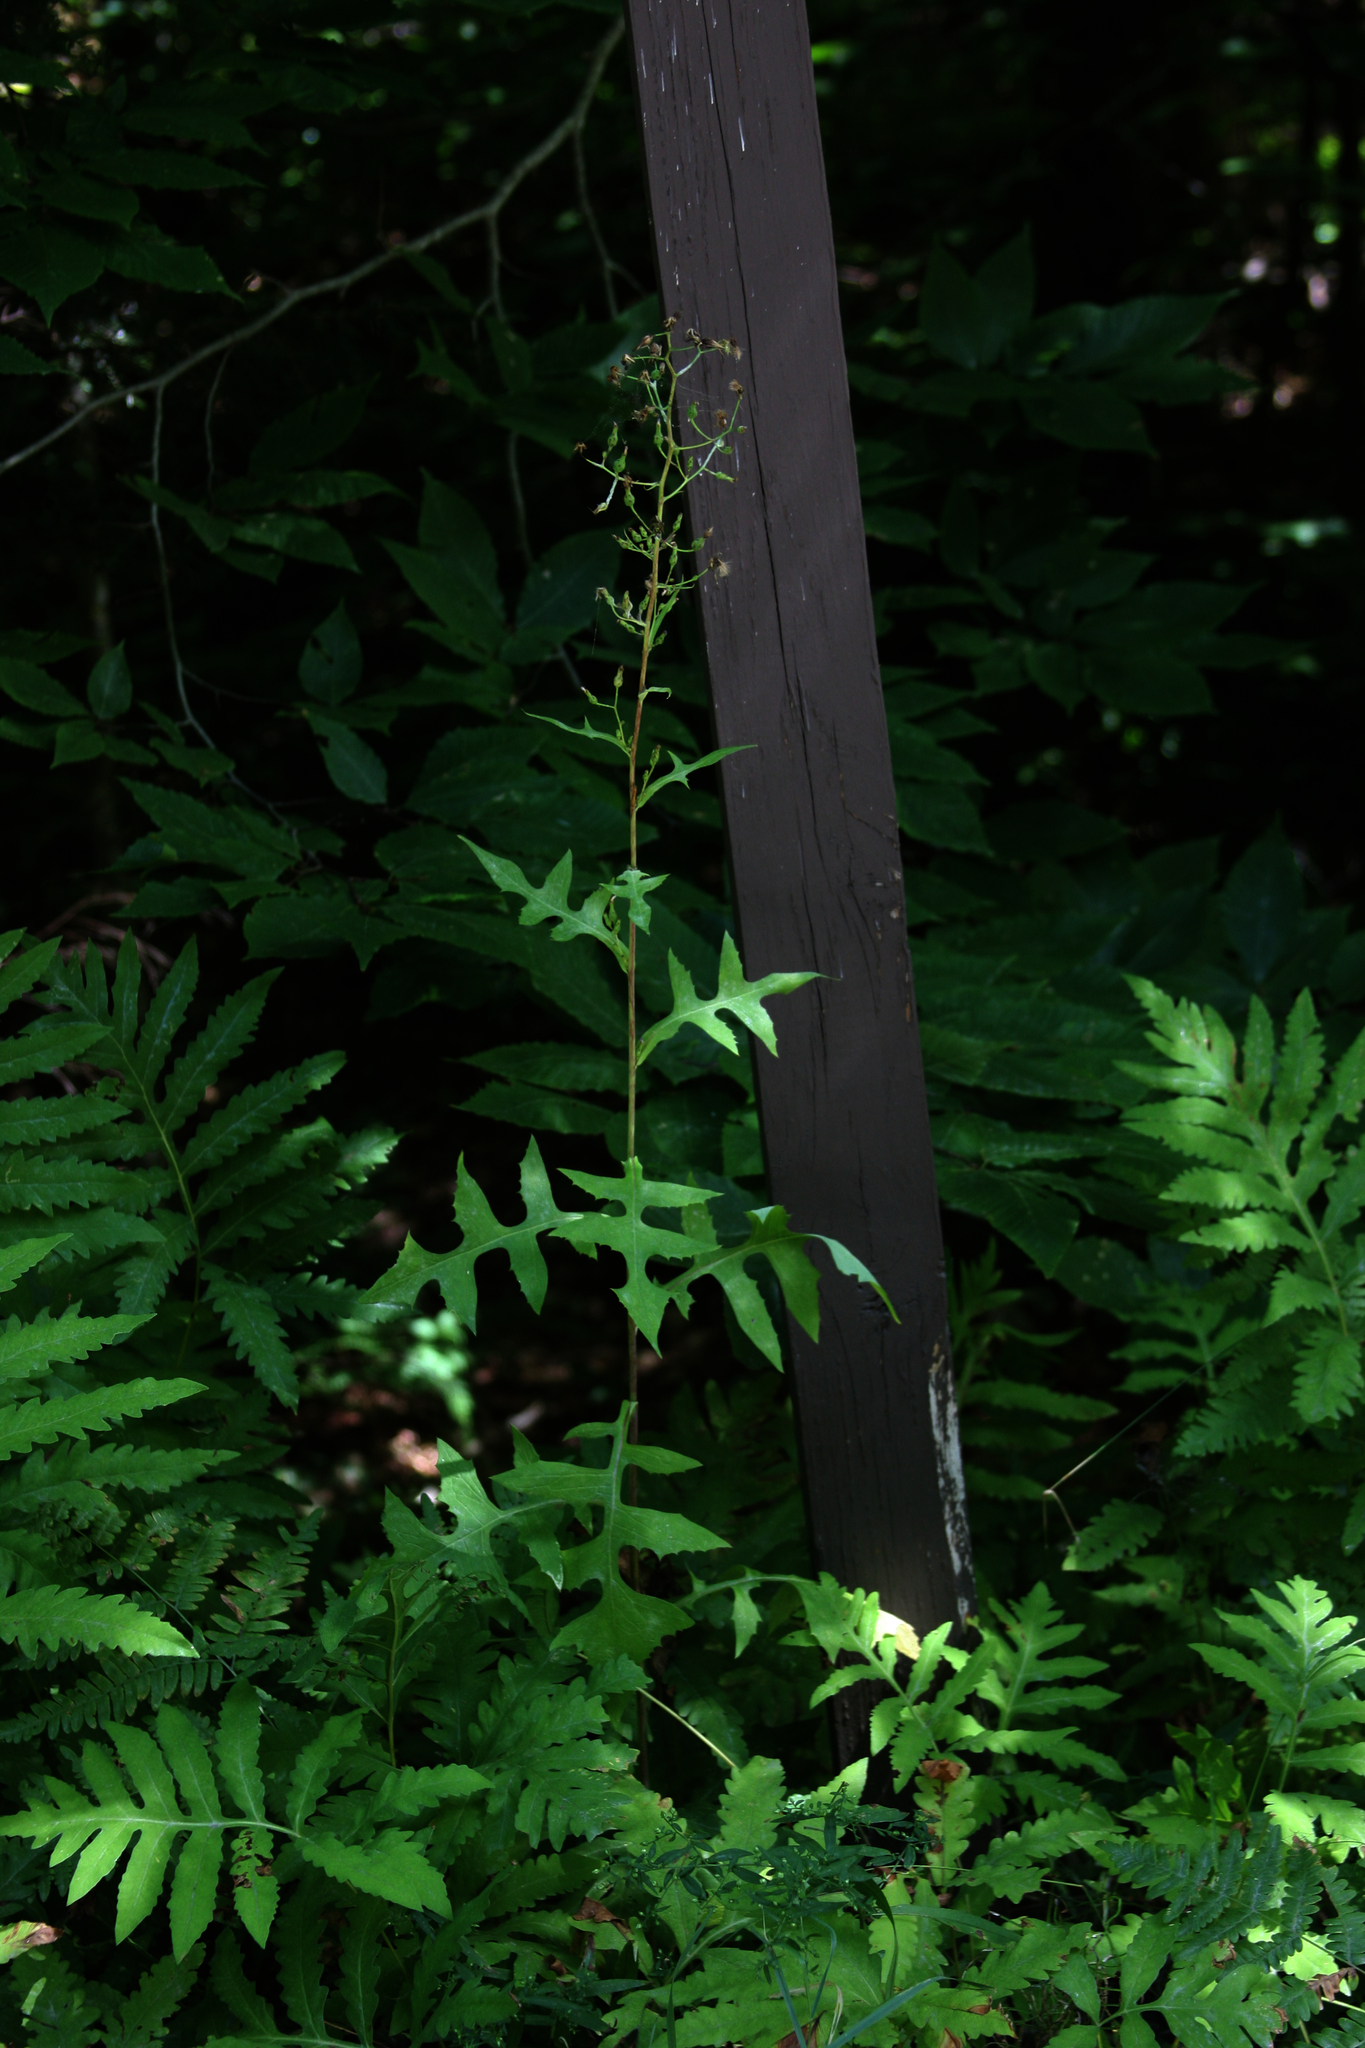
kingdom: Plantae
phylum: Tracheophyta
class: Magnoliopsida
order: Asterales
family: Asteraceae
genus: Lactuca
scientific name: Lactuca biennis
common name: Blue wood lettuce
